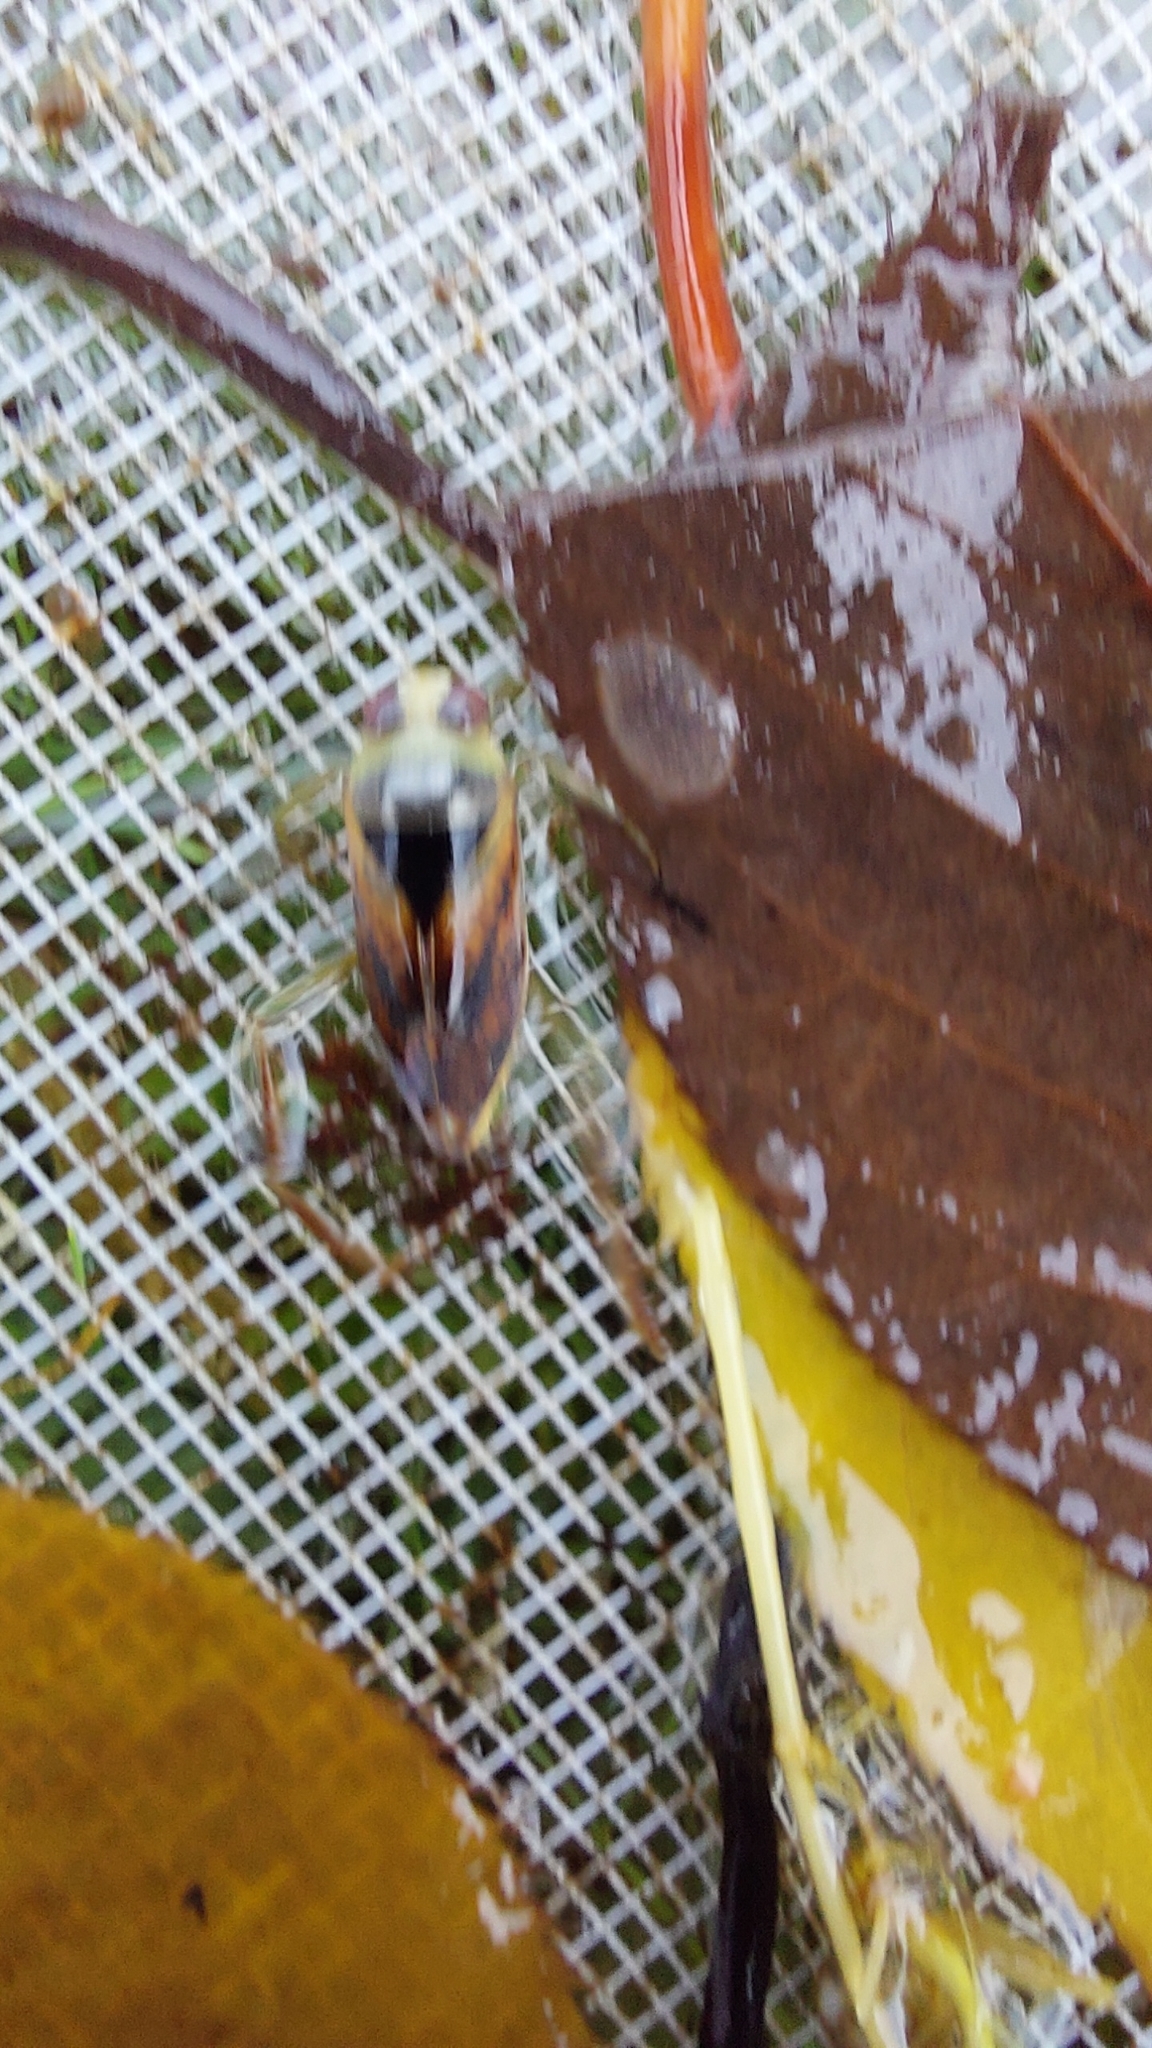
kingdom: Animalia
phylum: Arthropoda
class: Insecta
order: Hemiptera
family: Notonectidae
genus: Notonecta
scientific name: Notonecta maculata
